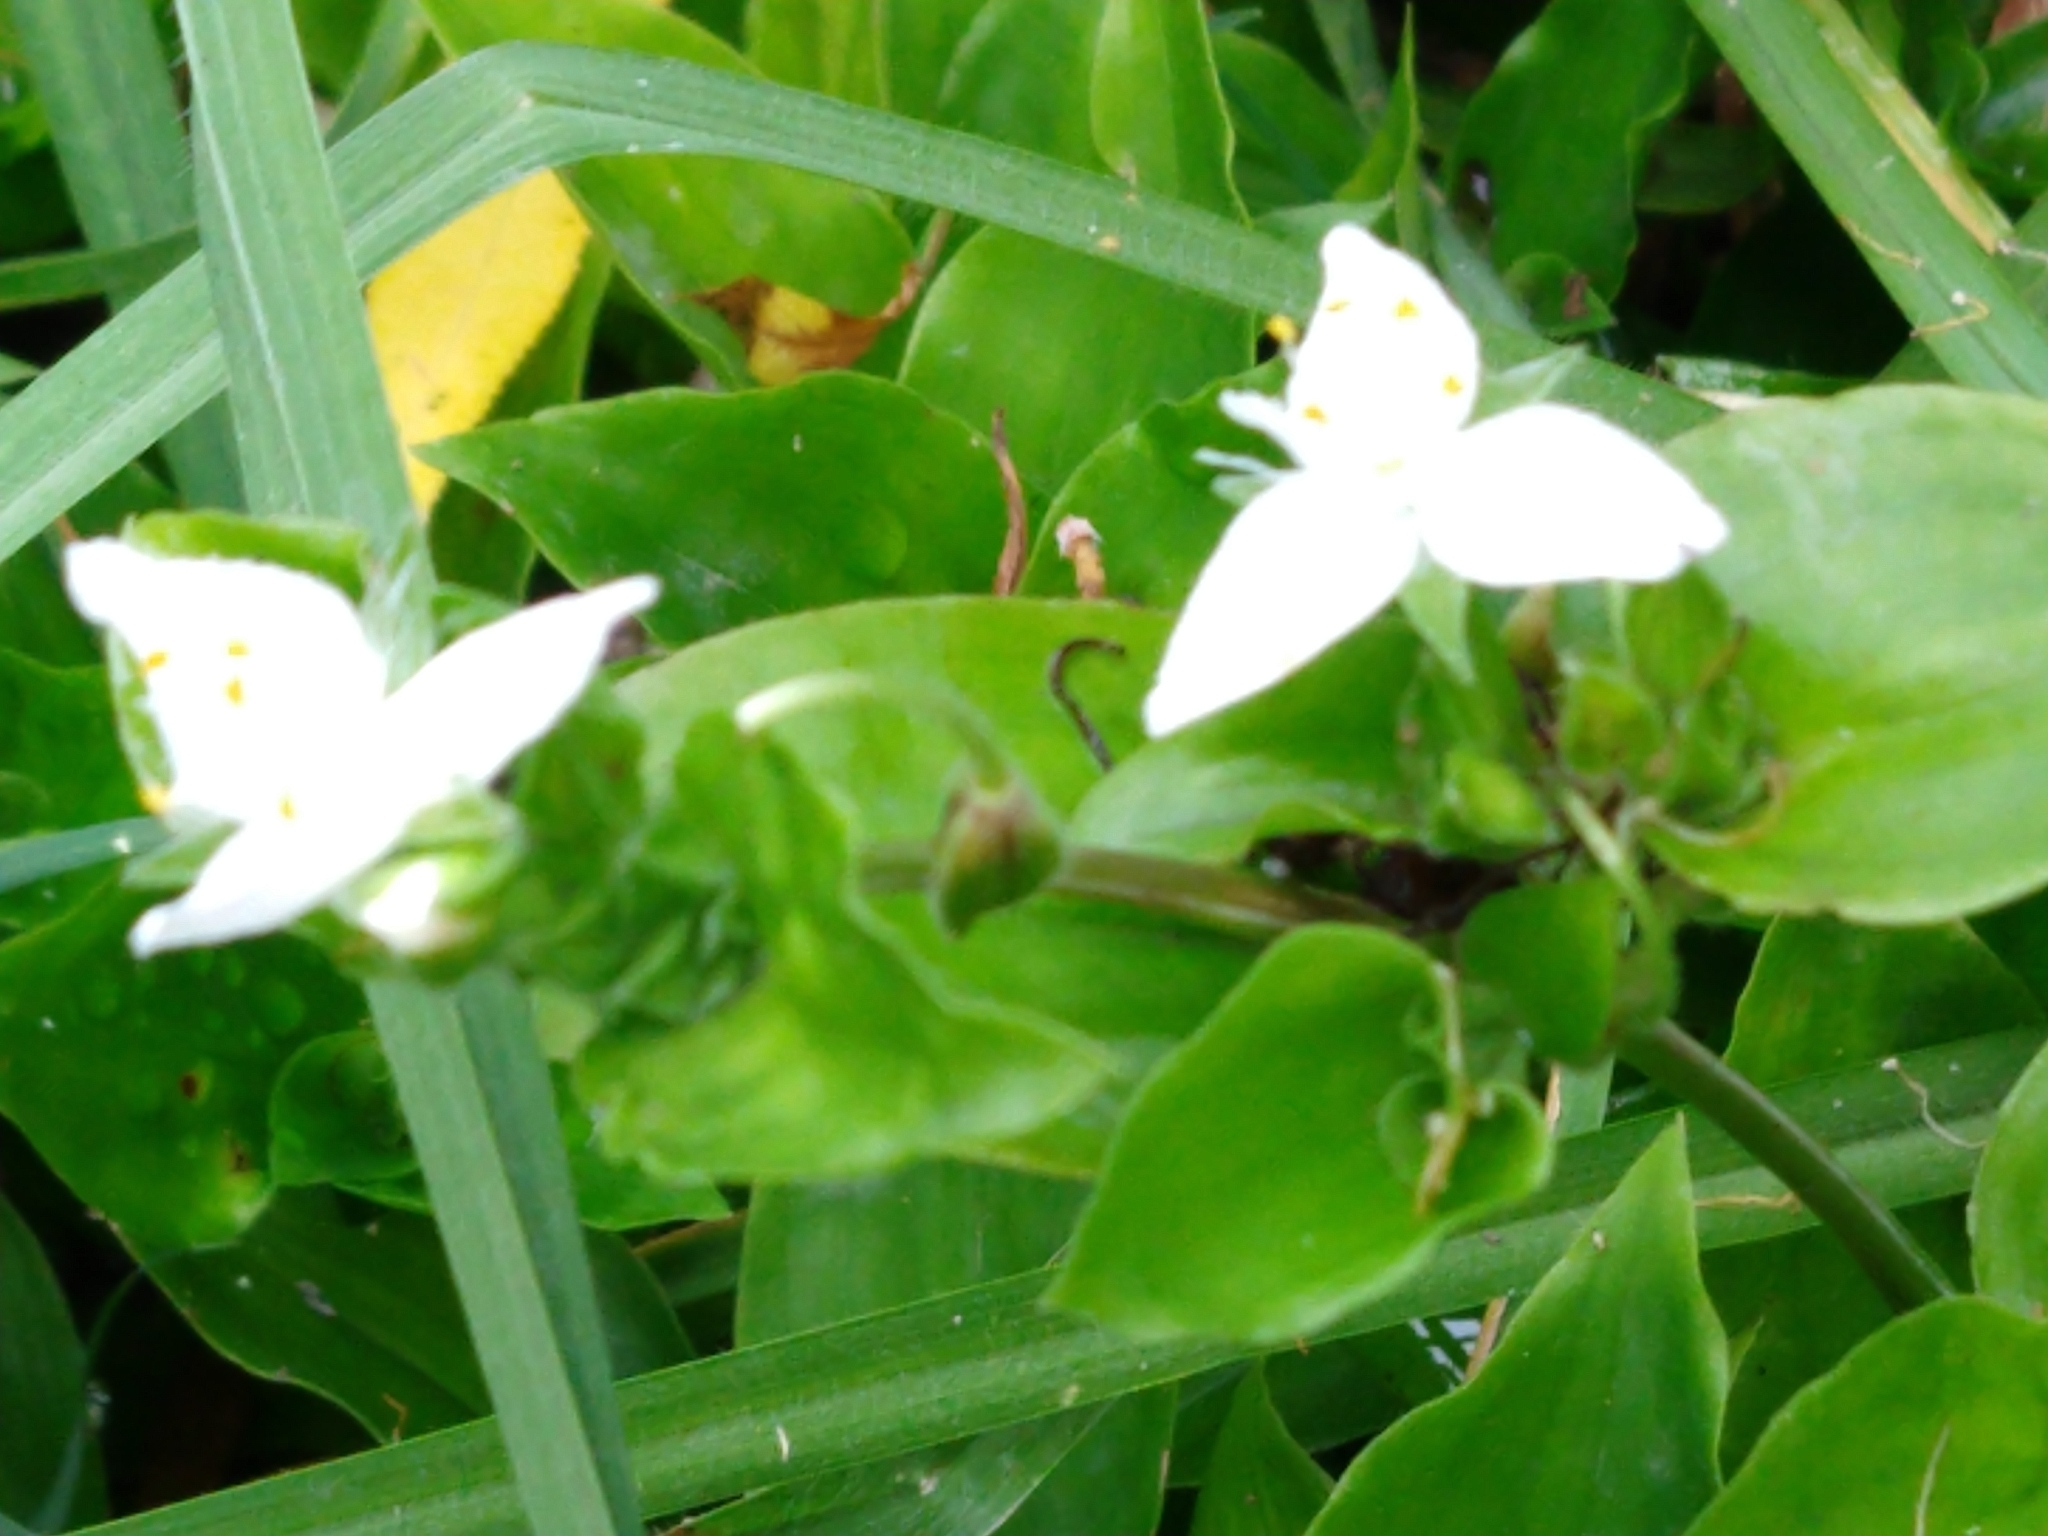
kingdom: Plantae
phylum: Tracheophyta
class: Liliopsida
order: Commelinales
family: Commelinaceae
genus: Tradescantia
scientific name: Tradescantia fluminensis
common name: Wandering-jew
